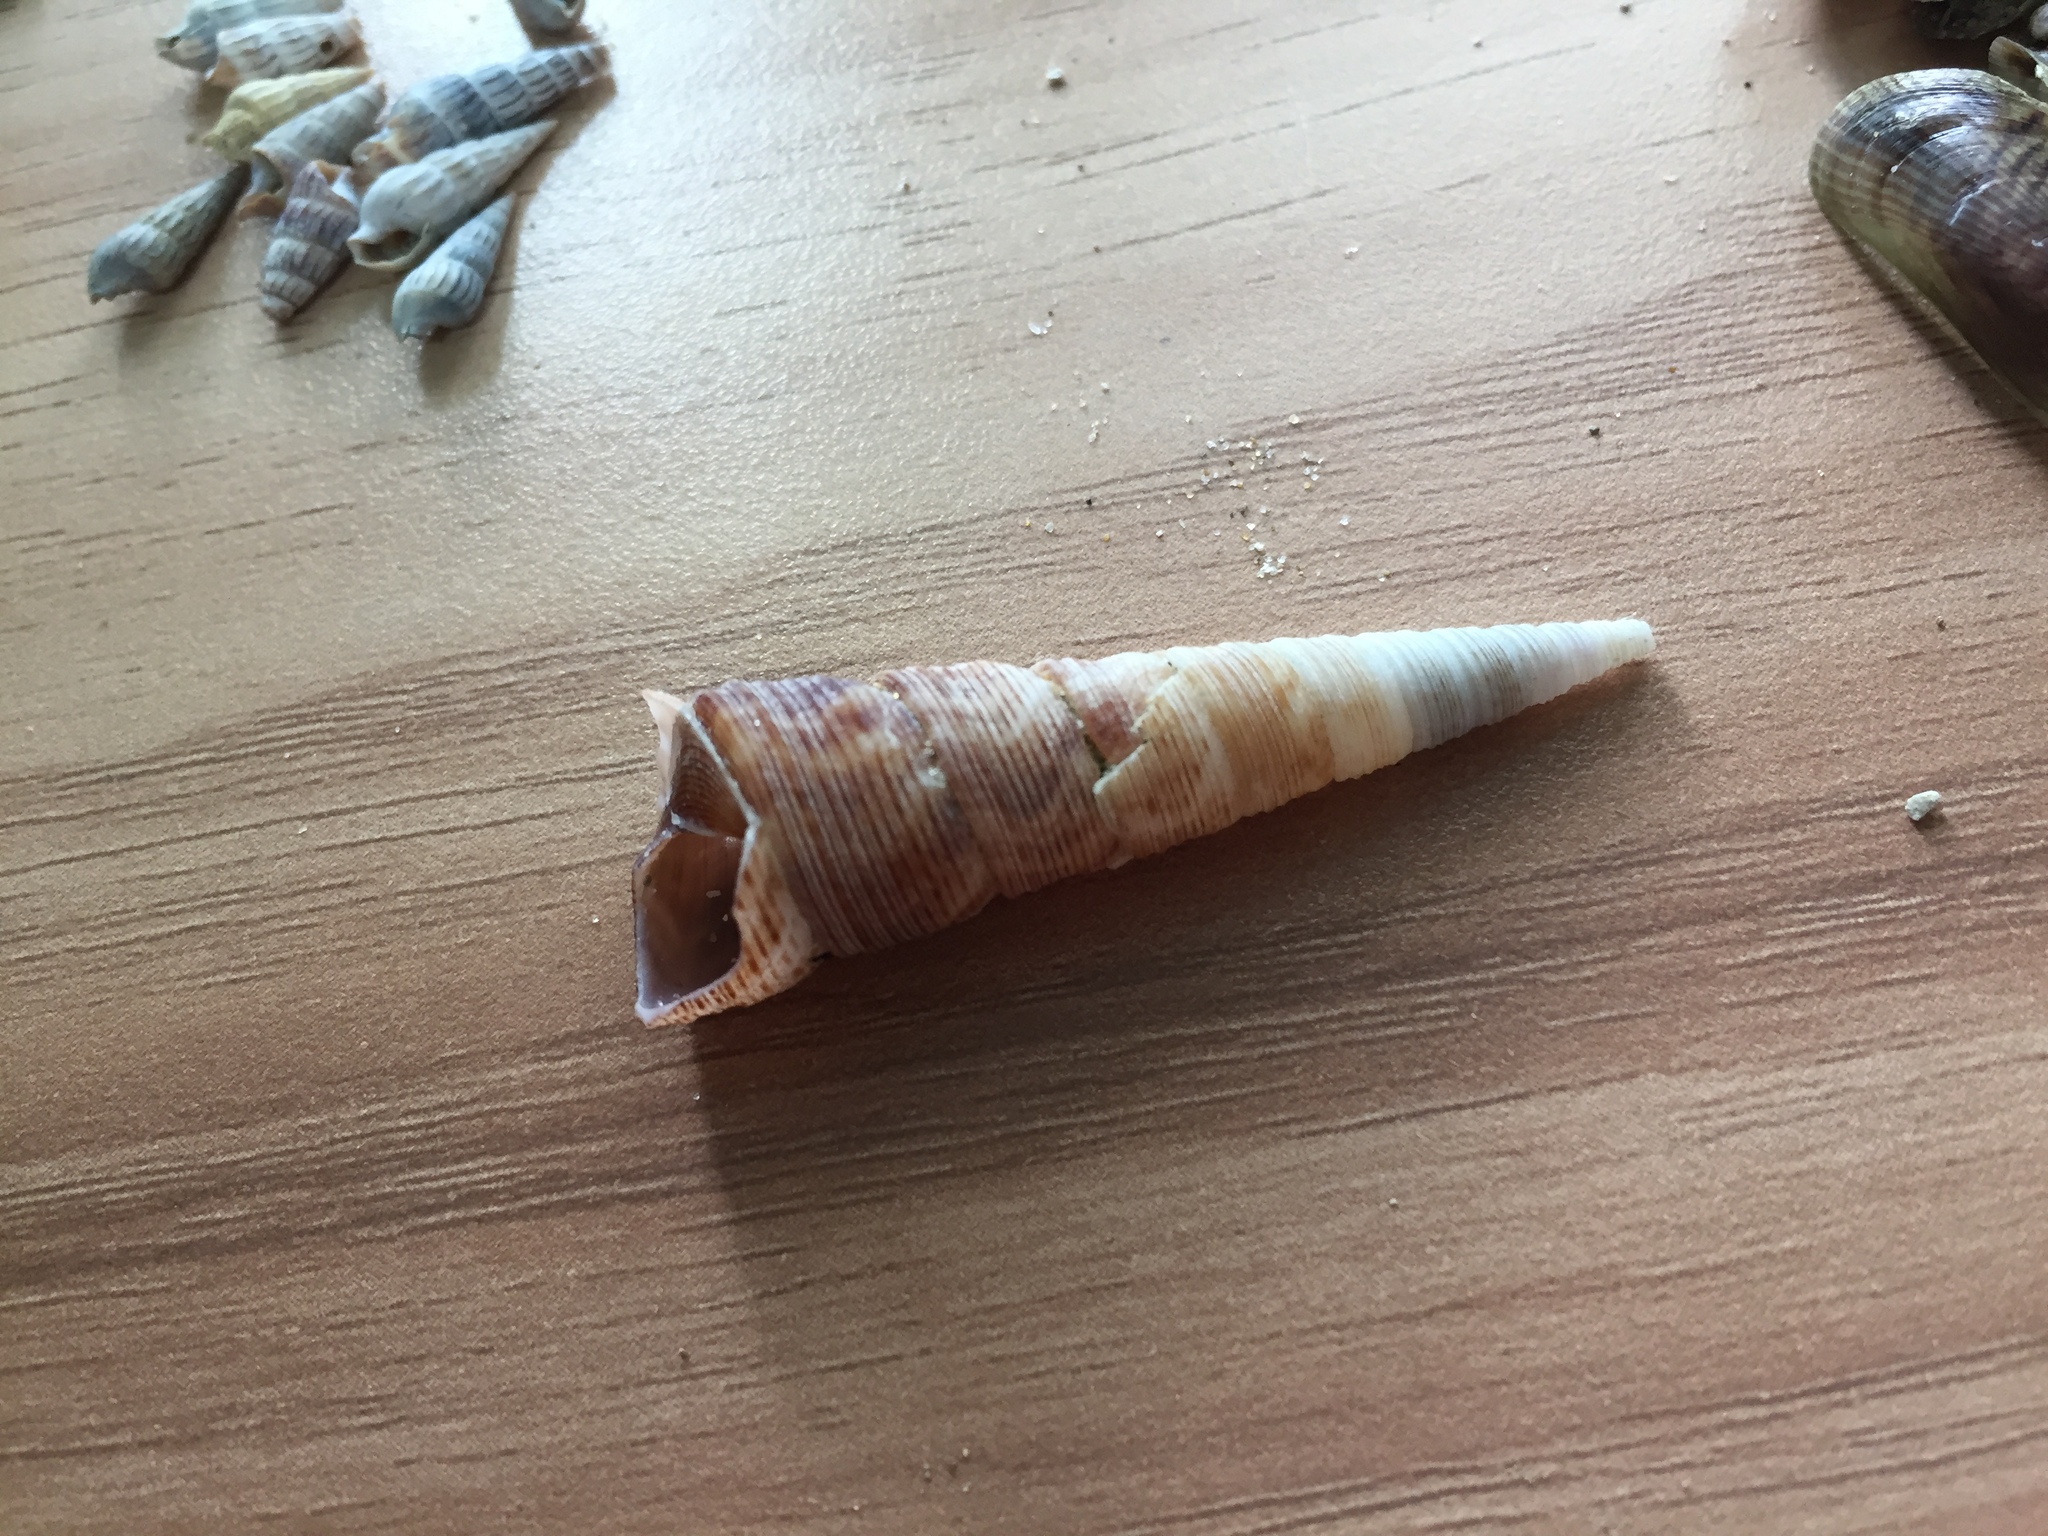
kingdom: Animalia
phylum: Mollusca
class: Gastropoda
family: Turritellidae
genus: Maoricolpus
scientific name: Maoricolpus roseus
